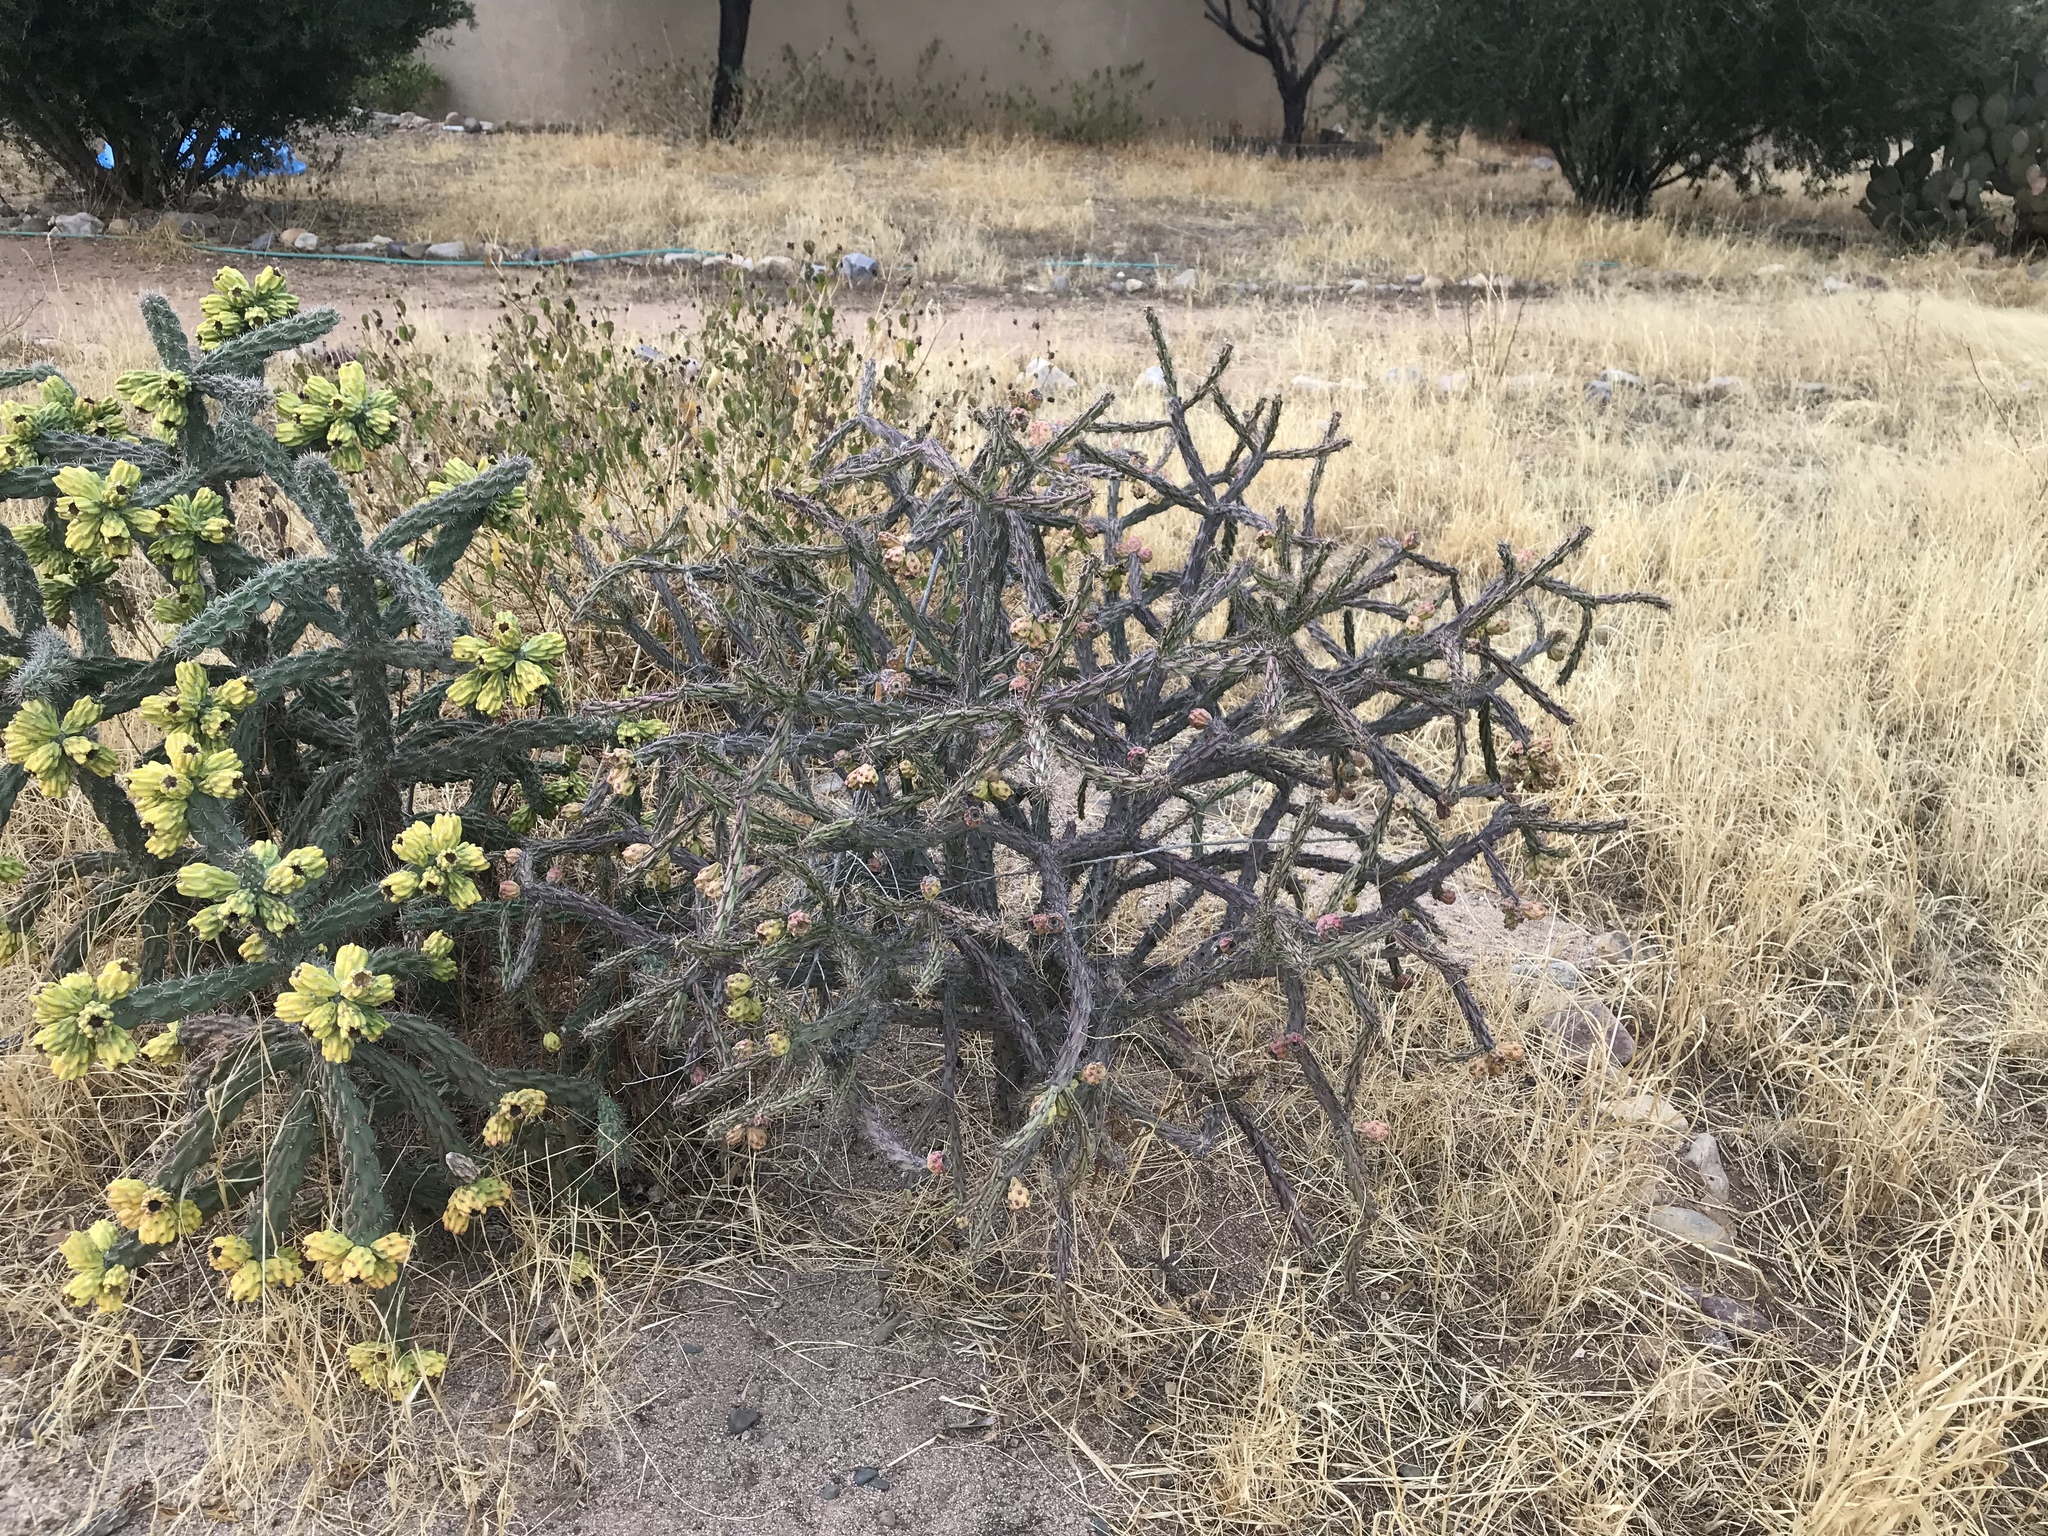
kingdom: Plantae
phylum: Tracheophyta
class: Magnoliopsida
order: Caryophyllales
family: Cactaceae
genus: Cylindropuntia
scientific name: Cylindropuntia imbricata
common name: Candelabrum cactus
